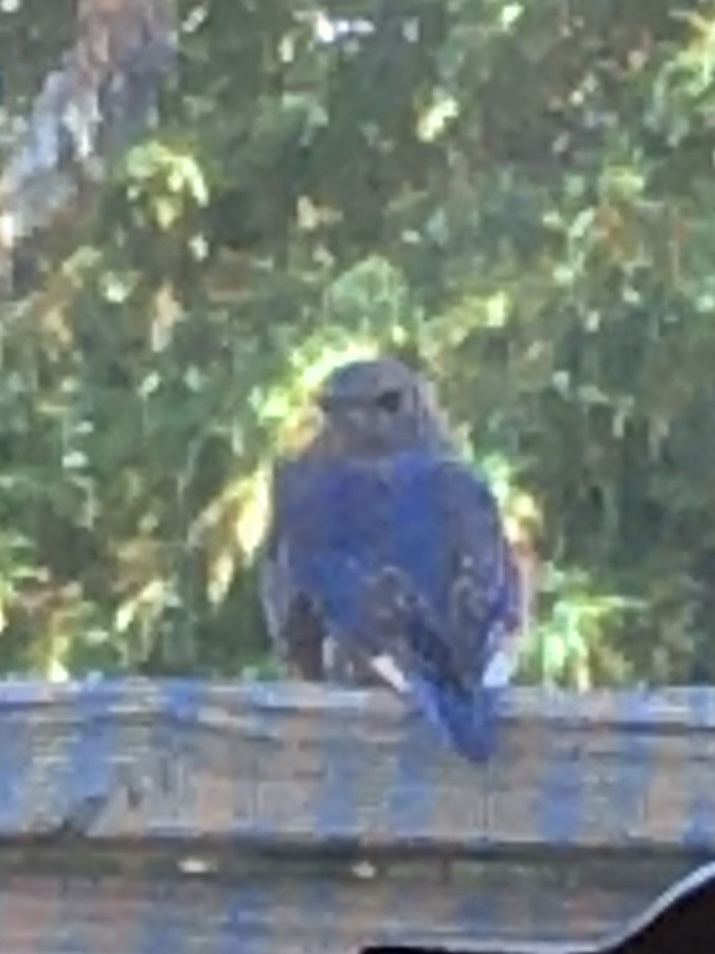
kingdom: Animalia
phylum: Chordata
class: Aves
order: Passeriformes
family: Turdidae
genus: Sialia
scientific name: Sialia sialis
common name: Eastern bluebird
